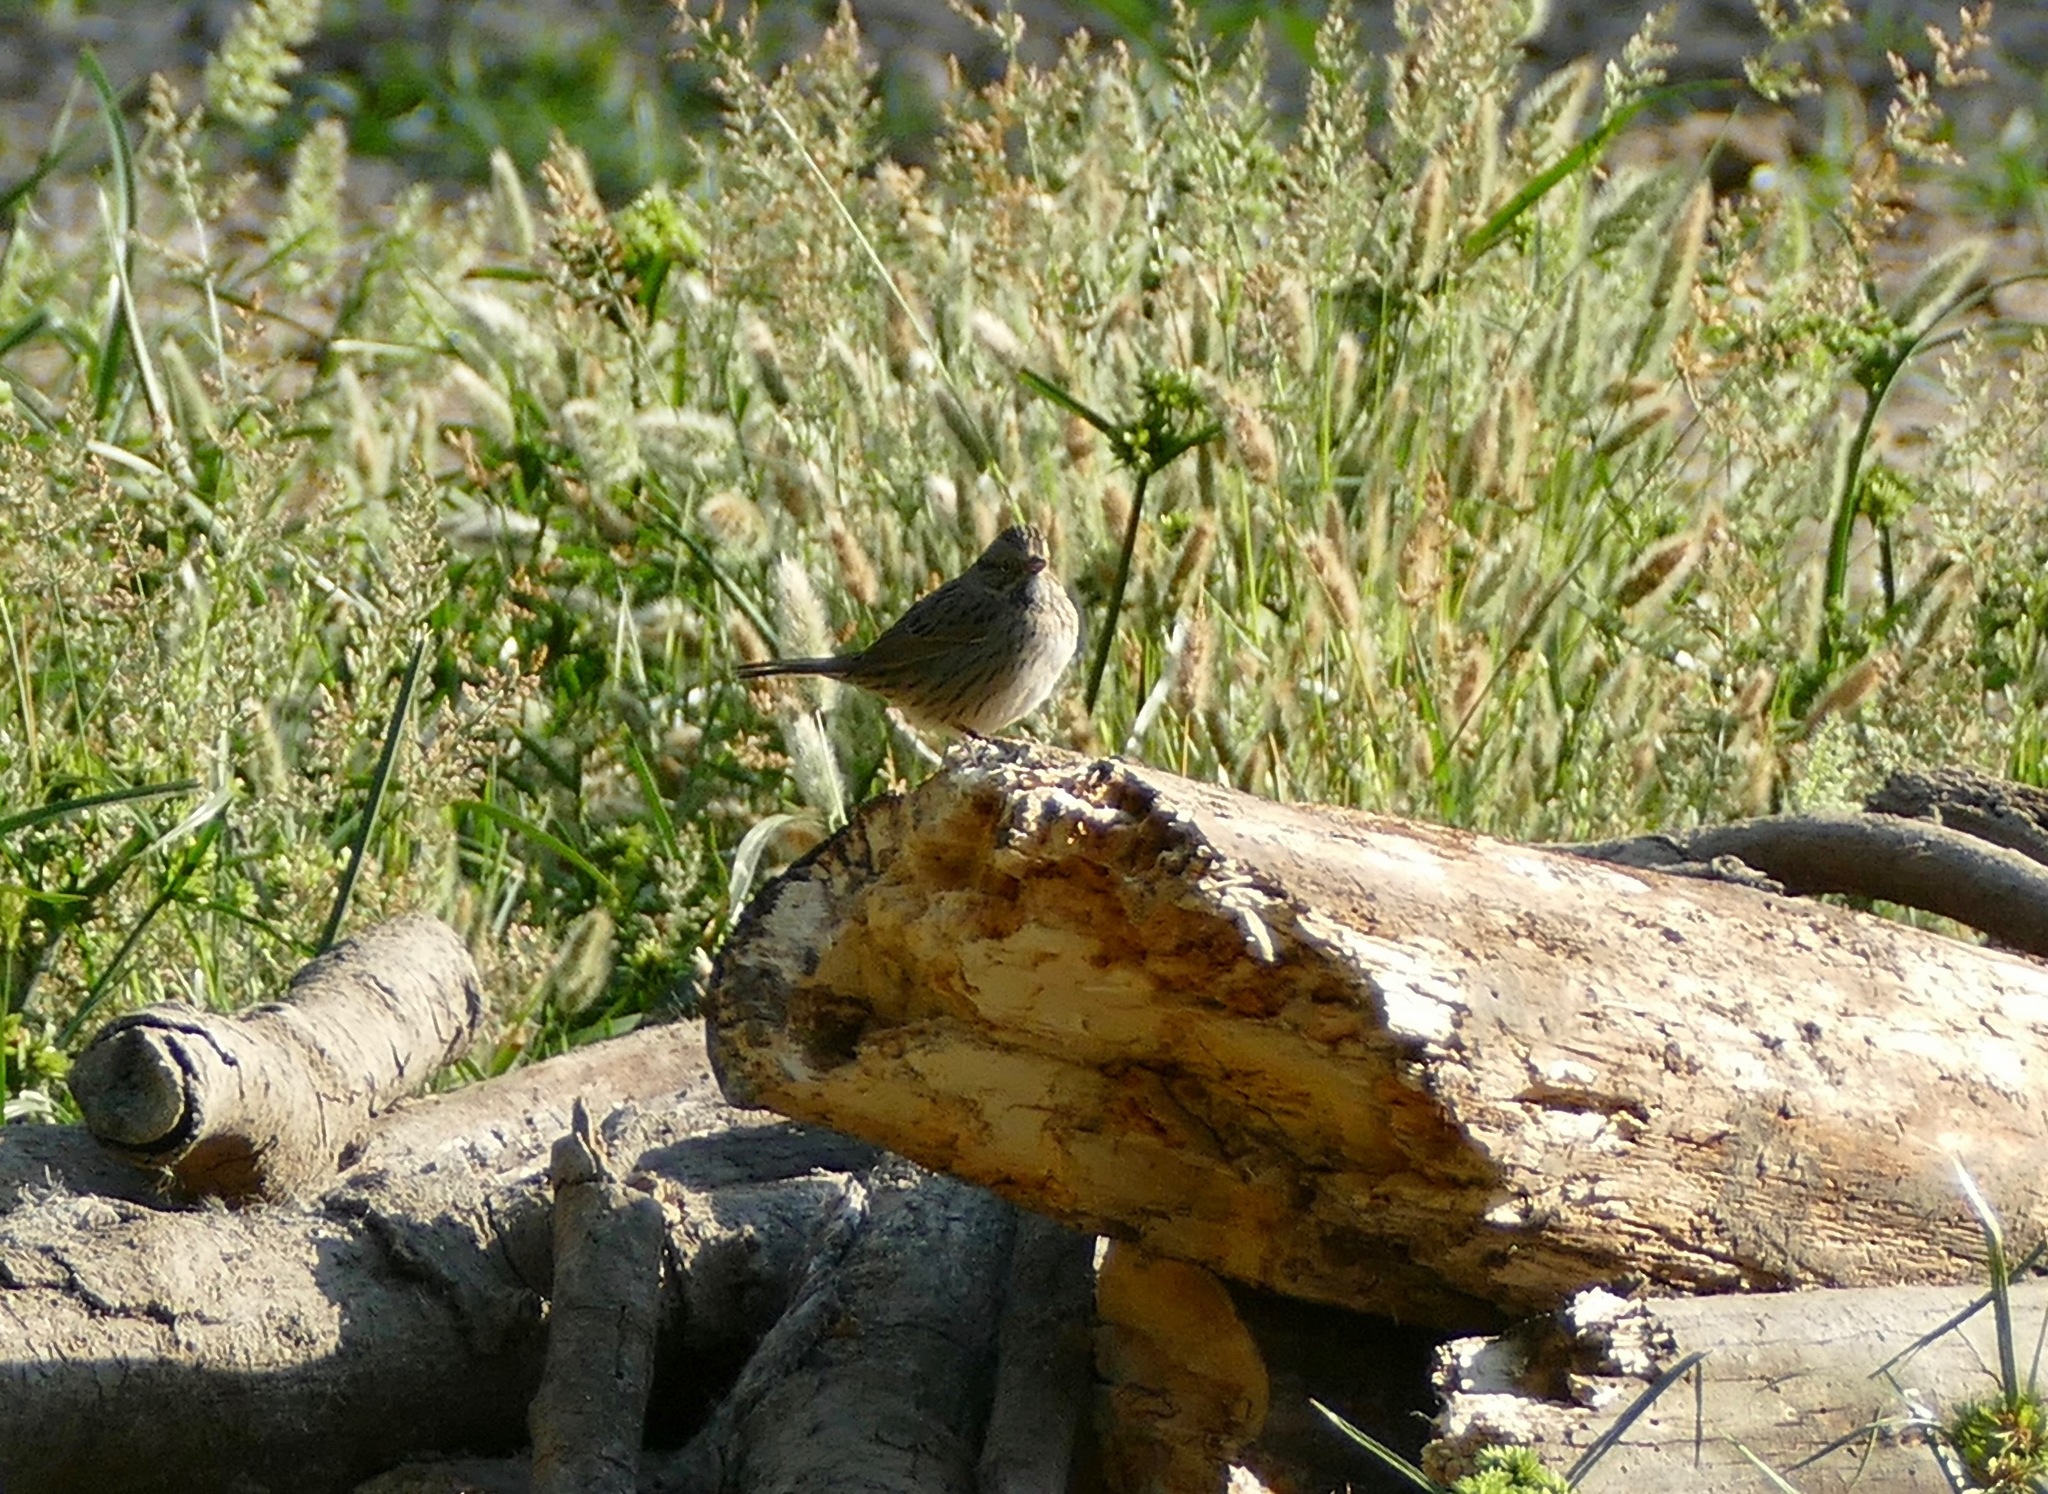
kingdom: Animalia
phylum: Chordata
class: Aves
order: Passeriformes
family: Passerellidae
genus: Melospiza
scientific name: Melospiza lincolnii
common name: Lincoln's sparrow
